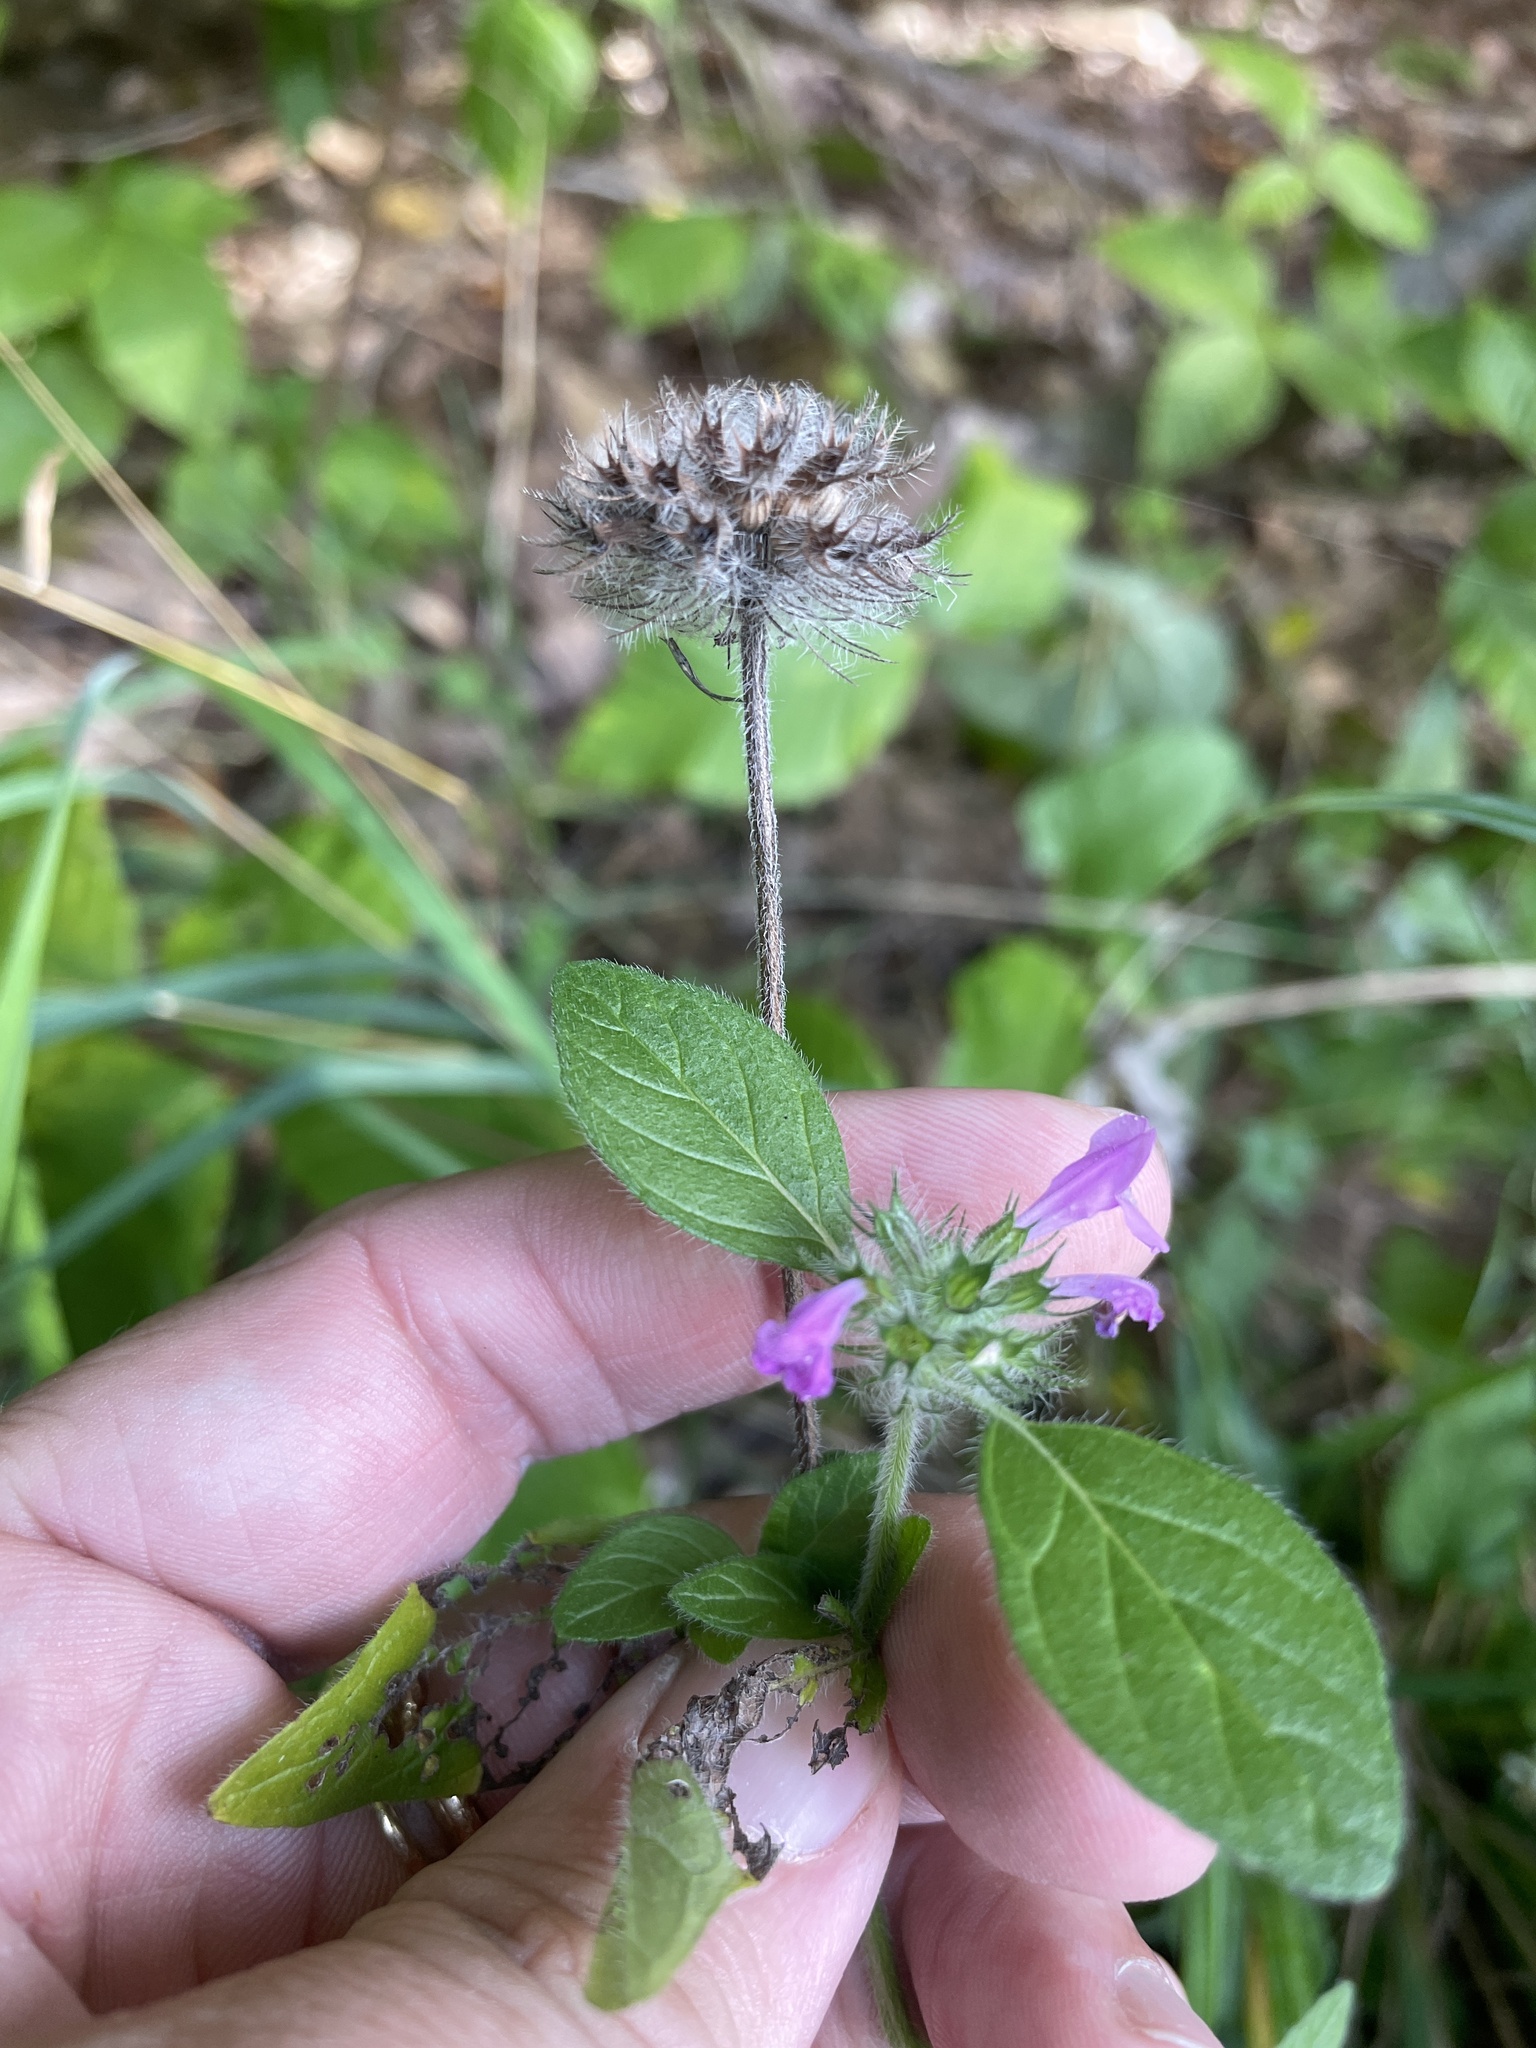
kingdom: Plantae
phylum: Tracheophyta
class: Magnoliopsida
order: Lamiales
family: Lamiaceae
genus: Clinopodium
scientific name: Clinopodium vulgare
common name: Wild basil
